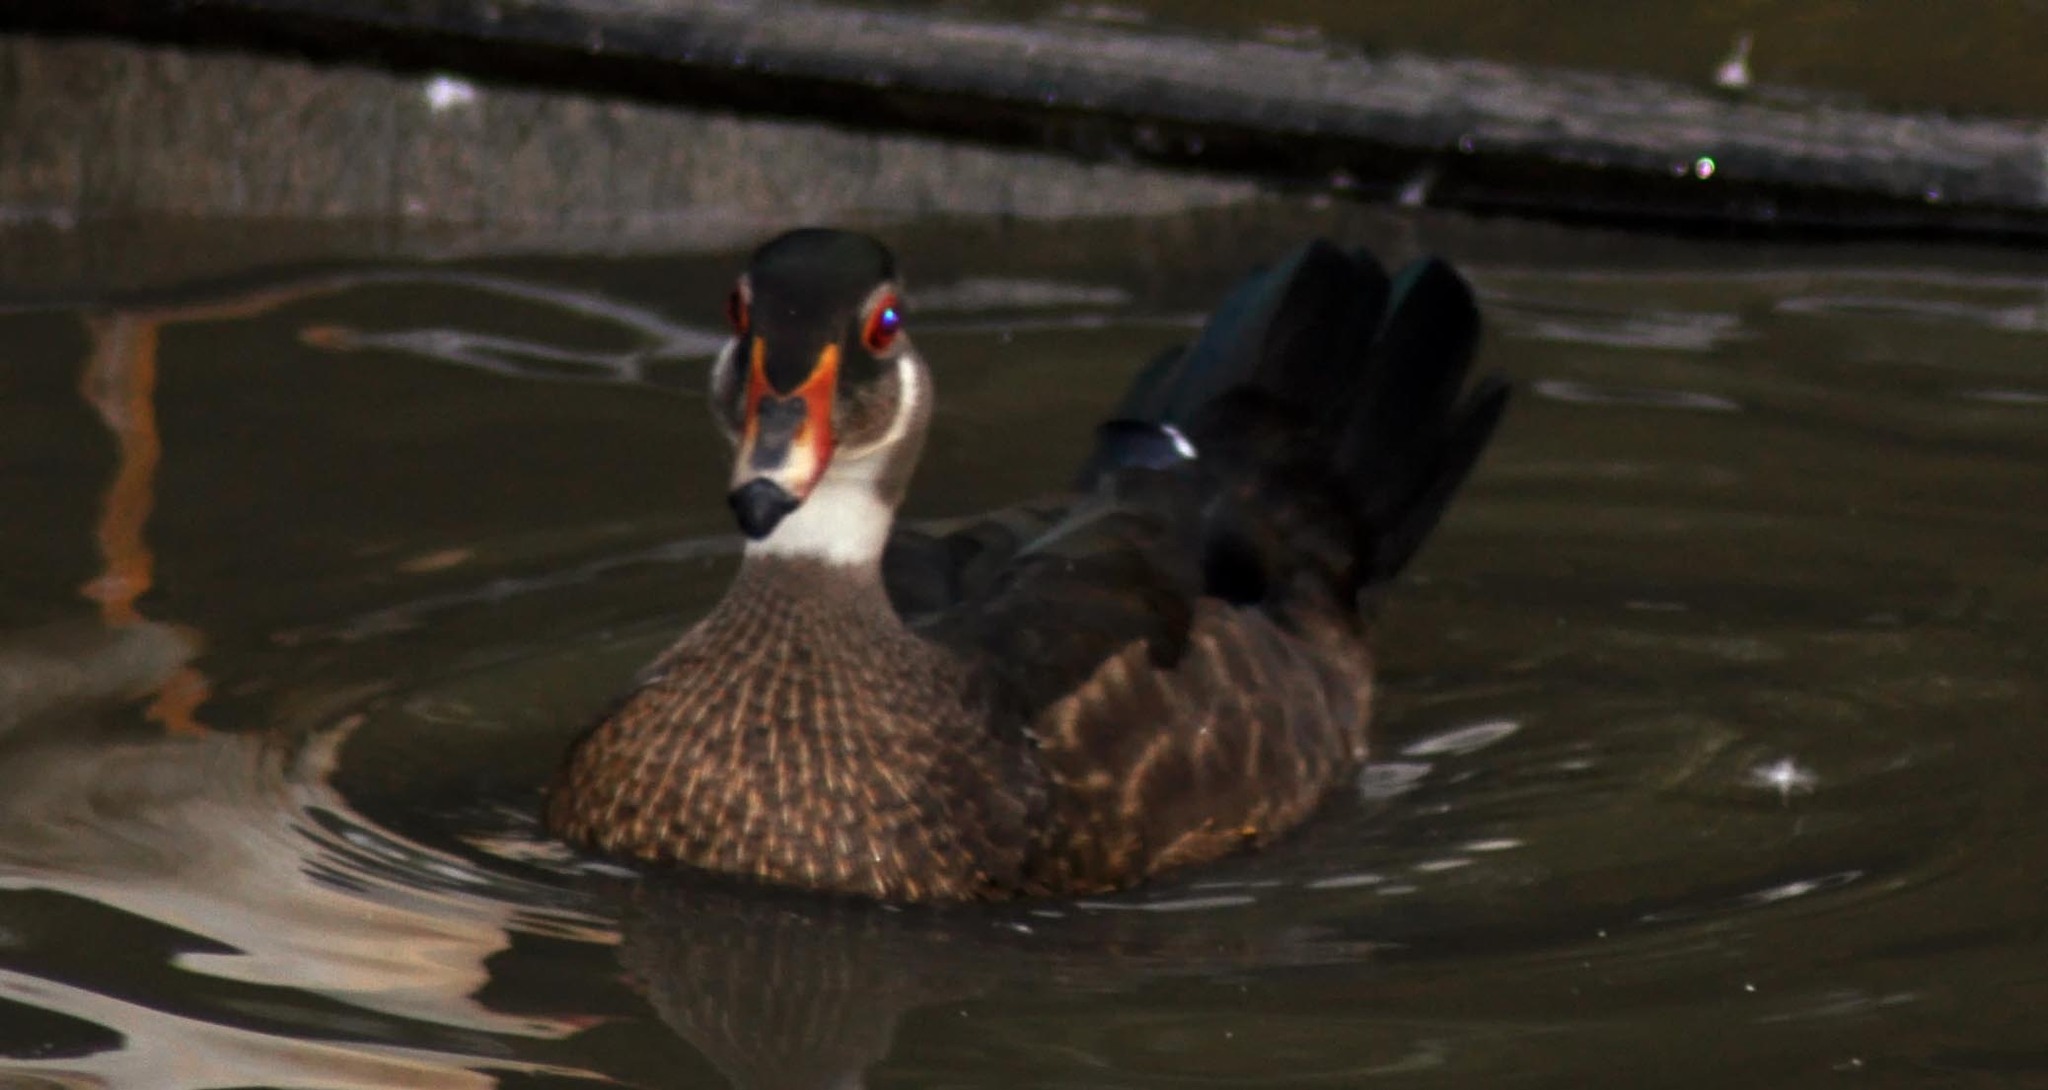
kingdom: Animalia
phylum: Chordata
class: Aves
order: Anseriformes
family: Anatidae
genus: Aix
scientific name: Aix sponsa
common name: Wood duck
